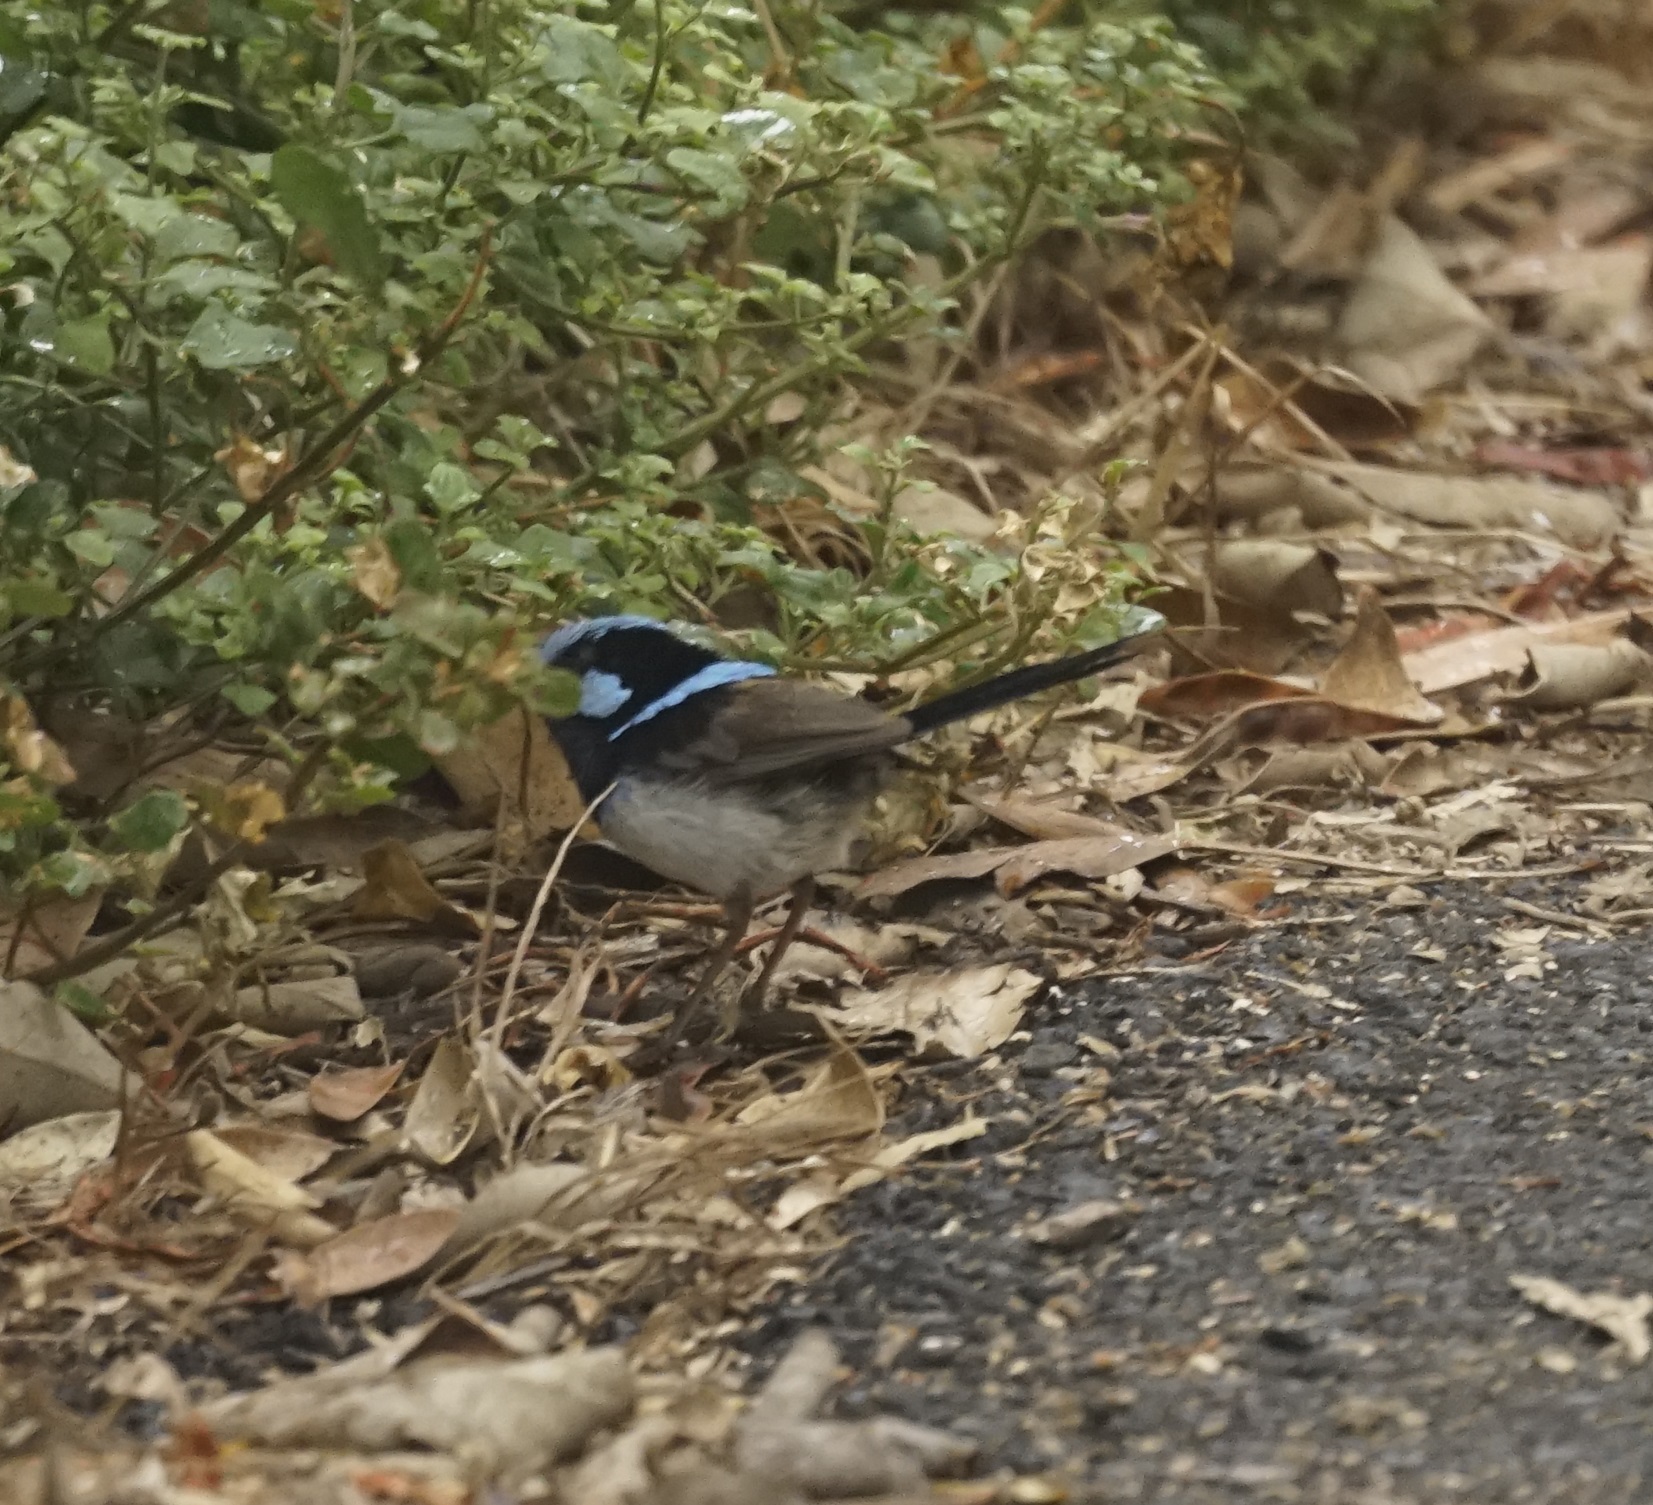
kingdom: Animalia
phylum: Chordata
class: Aves
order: Passeriformes
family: Maluridae
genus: Malurus
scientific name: Malurus cyaneus
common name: Superb fairywren
